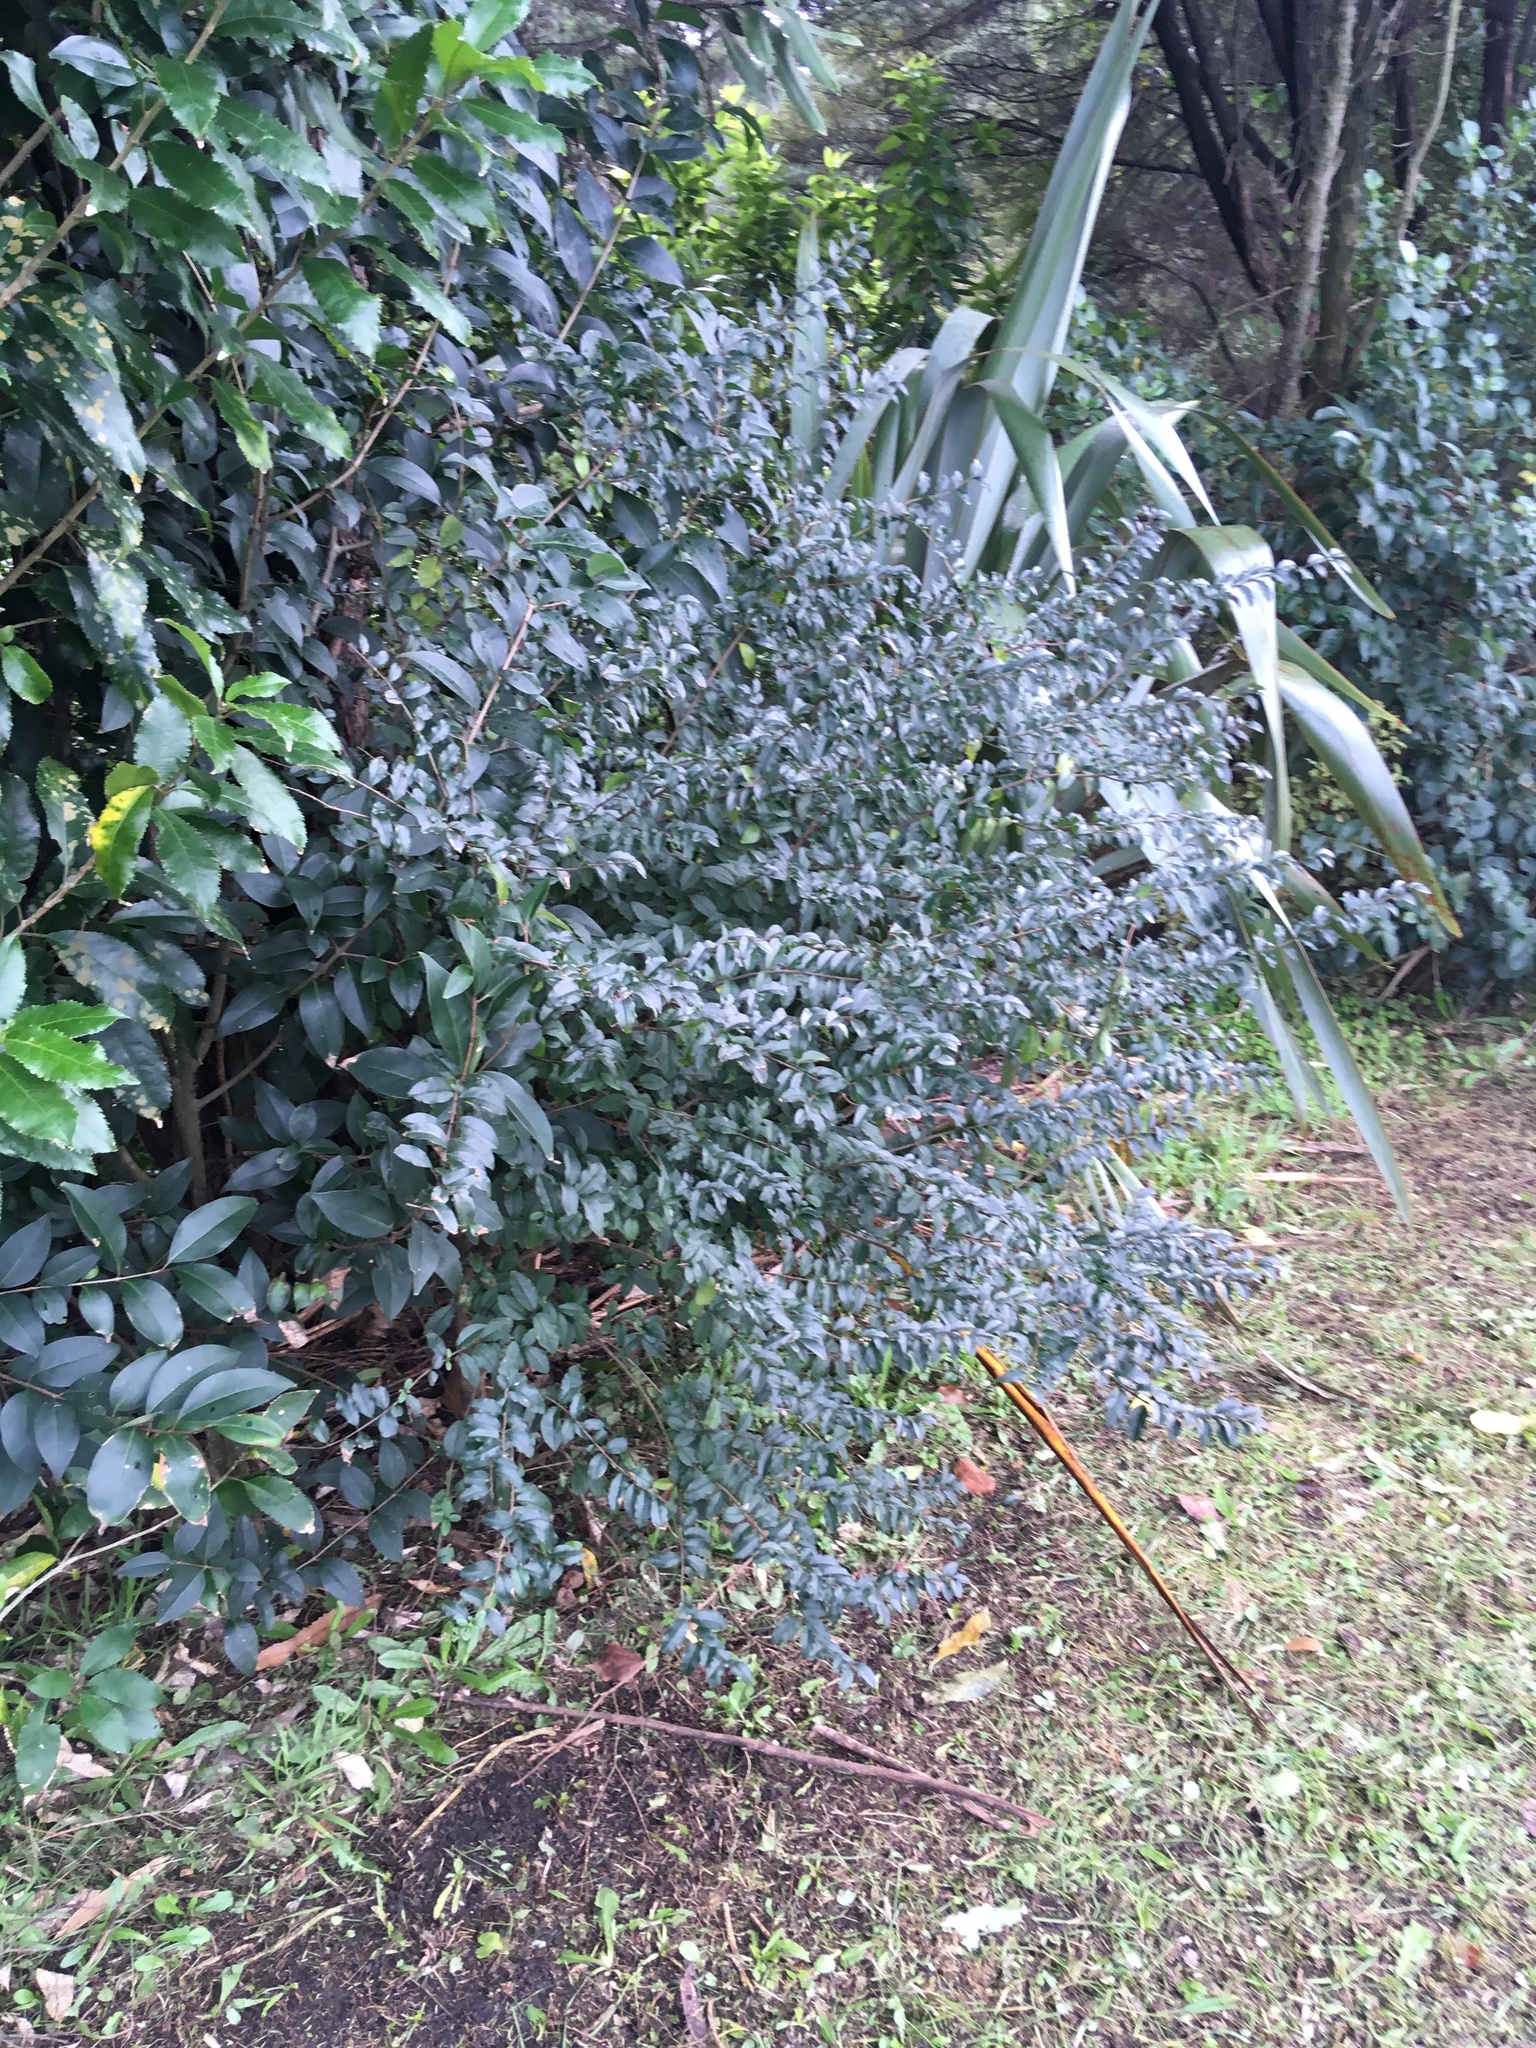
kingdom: Plantae
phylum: Tracheophyta
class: Magnoliopsida
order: Lamiales
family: Oleaceae
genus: Ligustrum
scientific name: Ligustrum sinense
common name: Chinese privet
